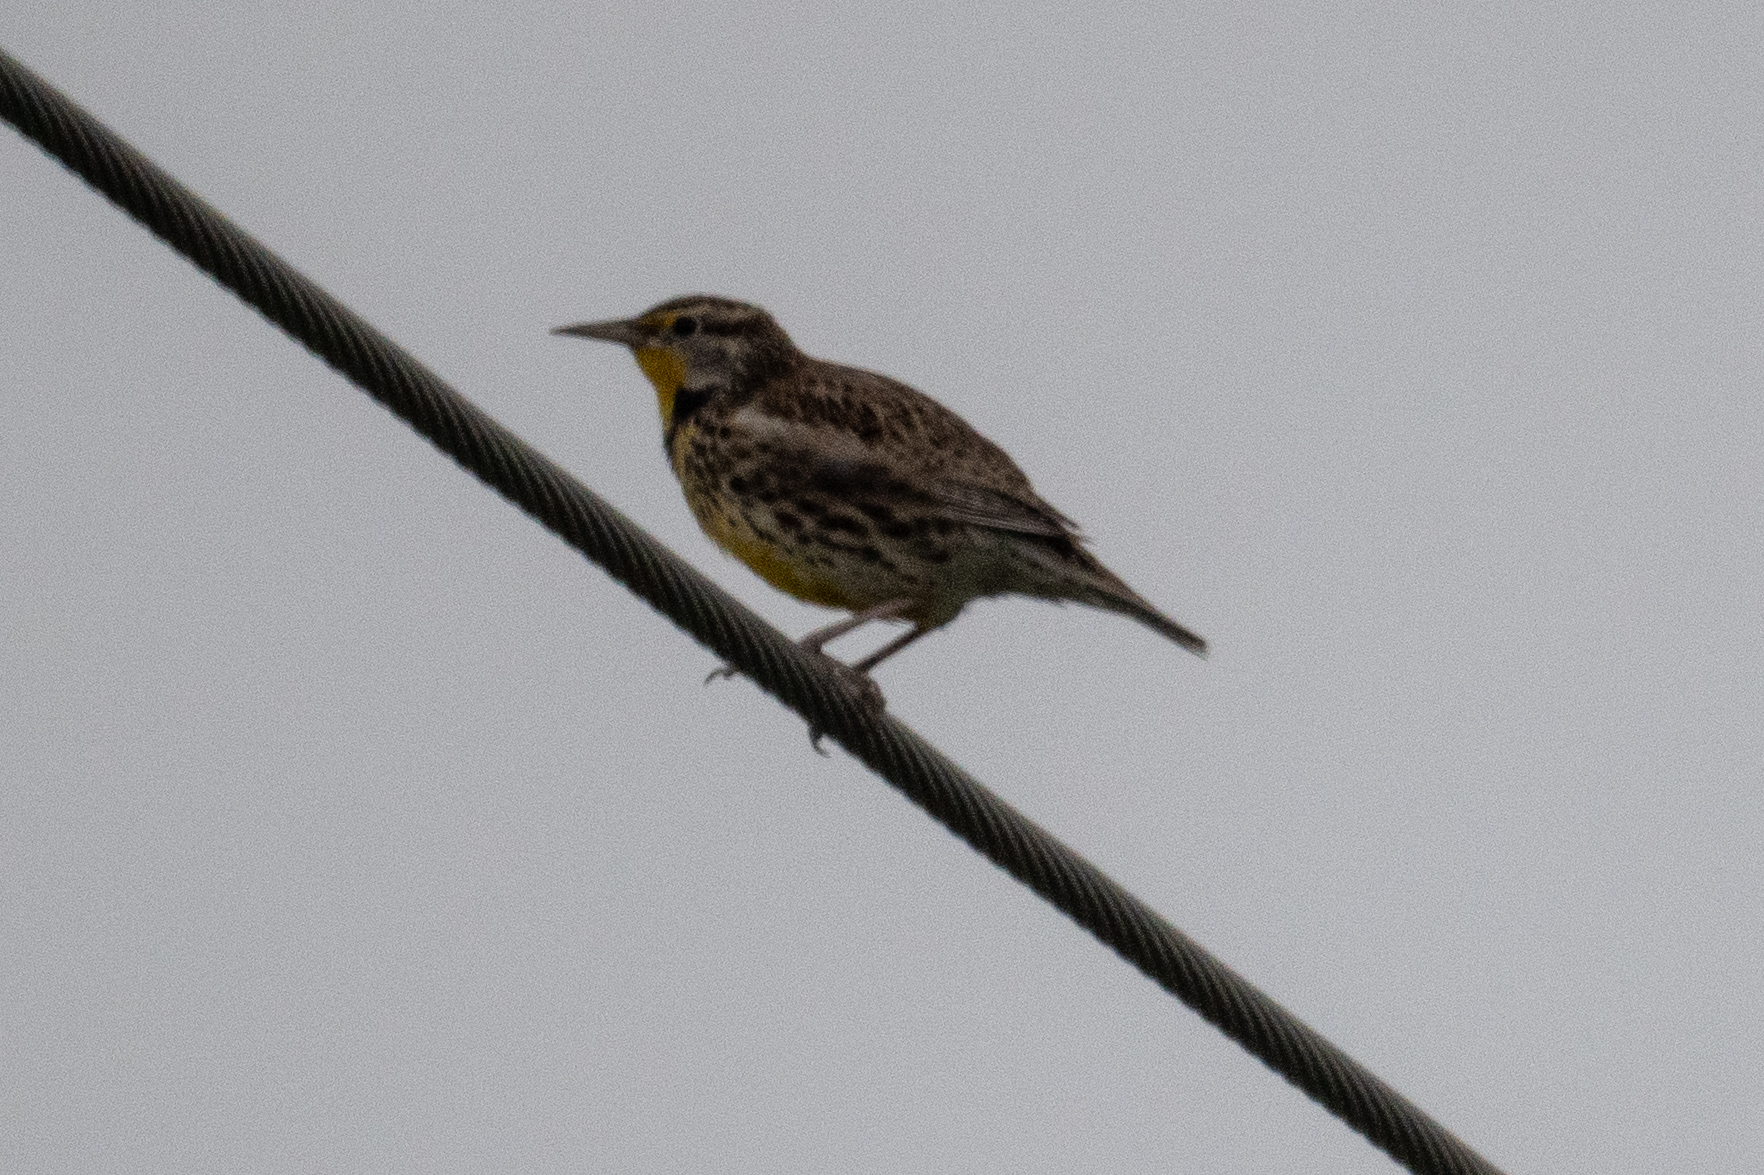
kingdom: Animalia
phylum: Chordata
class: Aves
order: Passeriformes
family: Icteridae
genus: Sturnella
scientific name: Sturnella neglecta
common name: Western meadowlark
